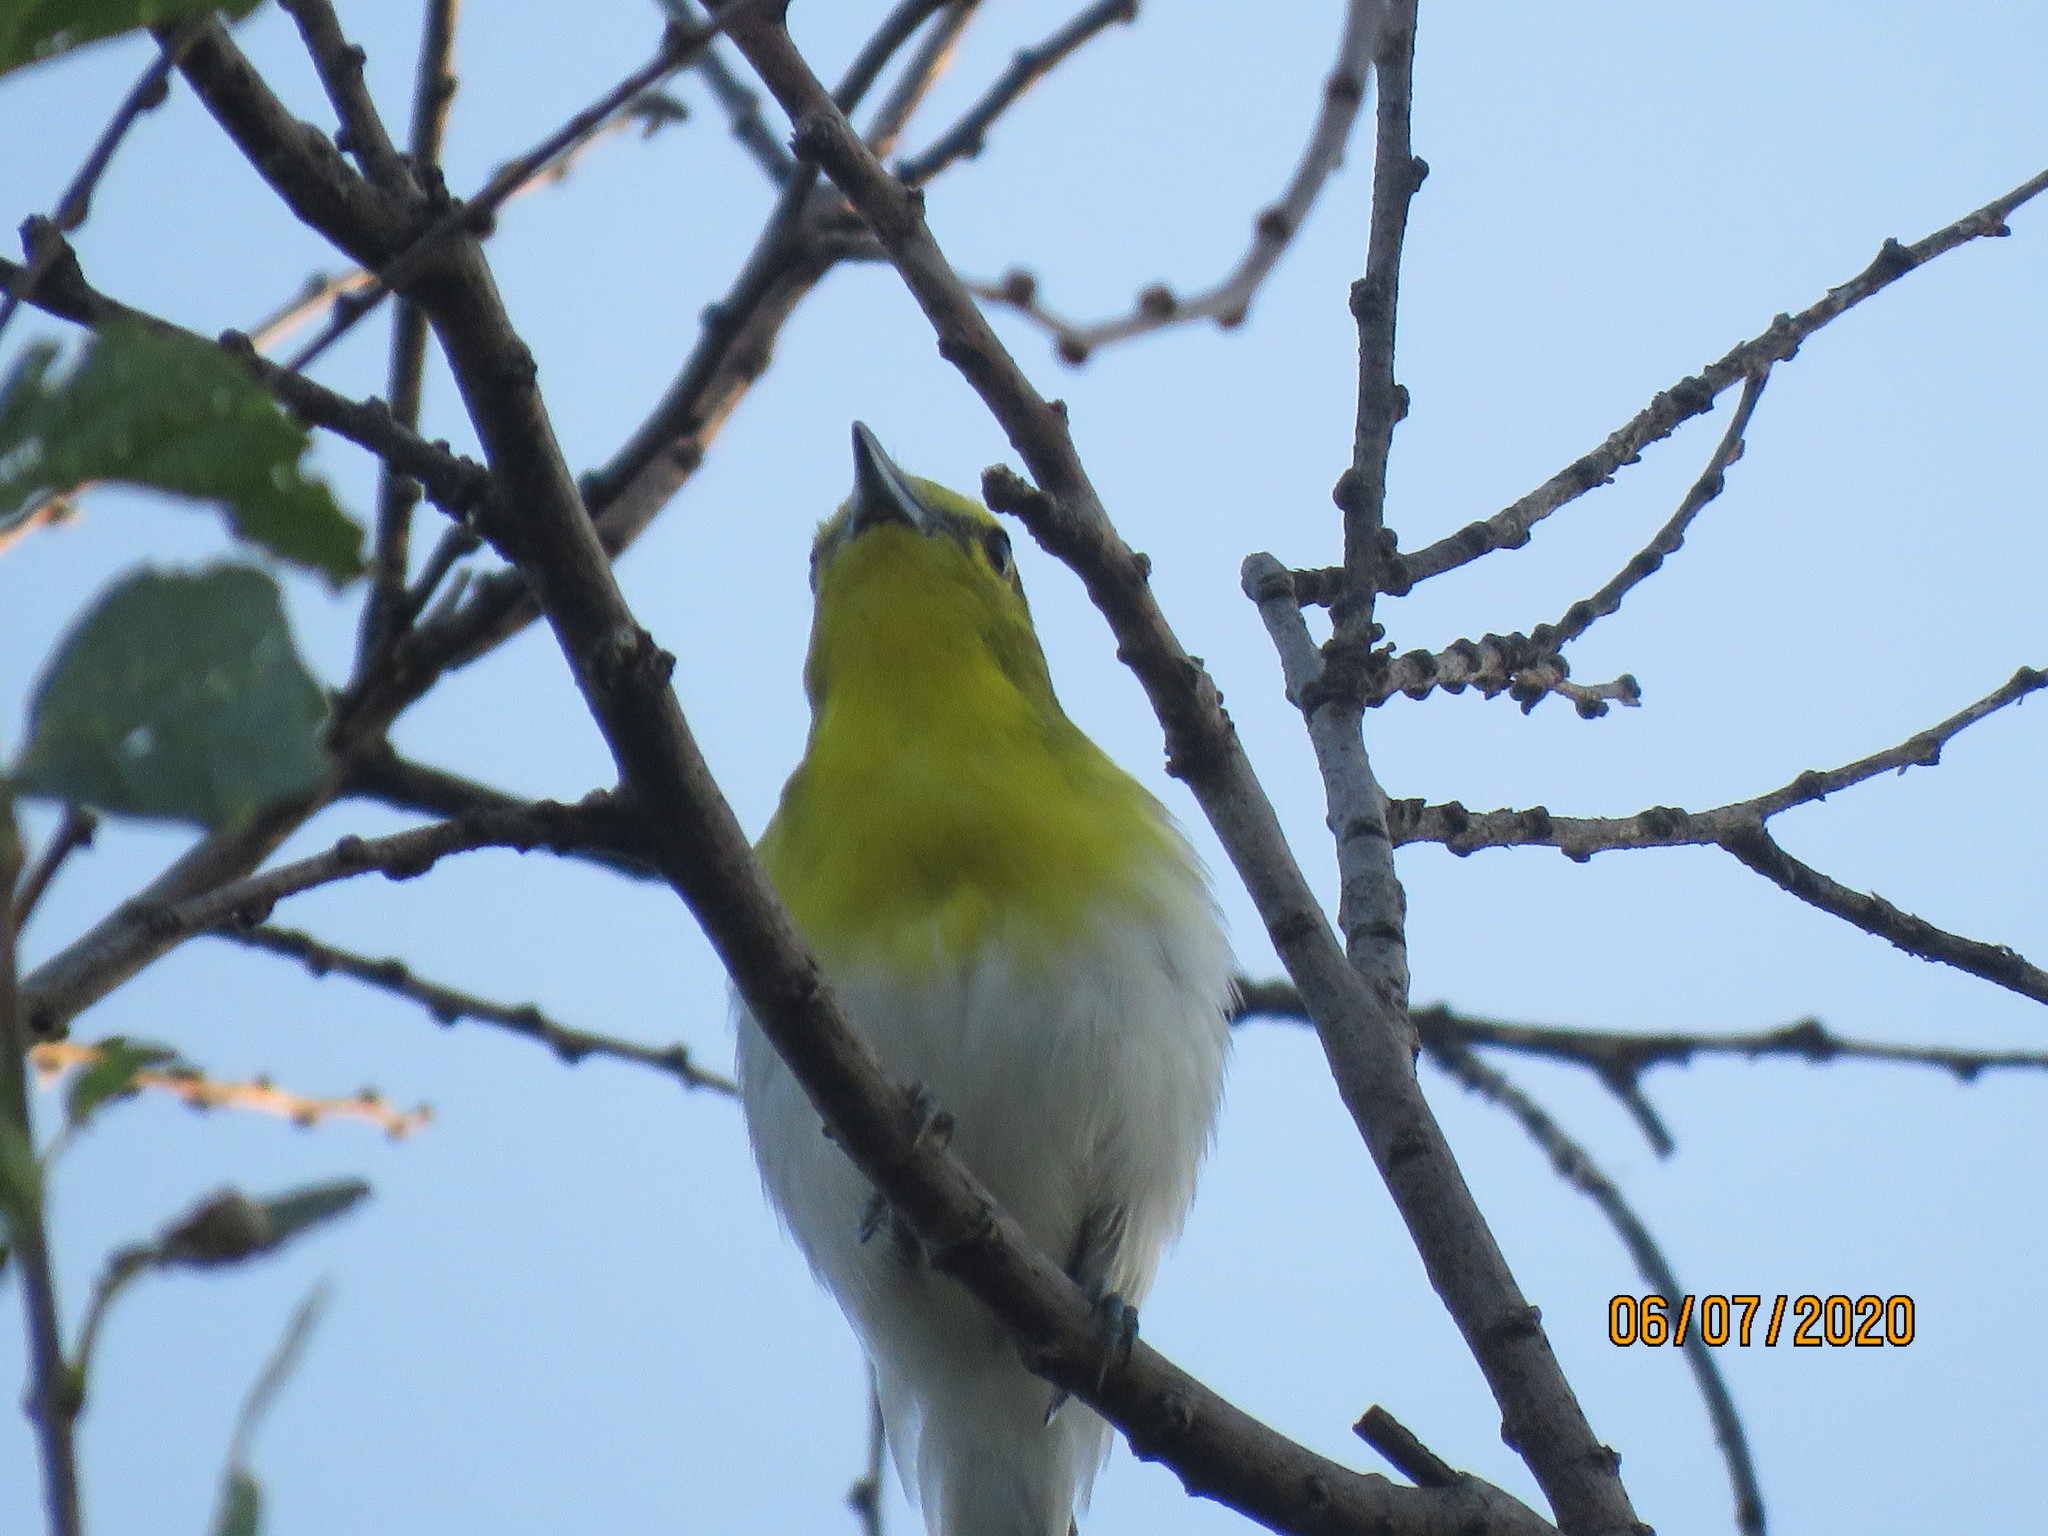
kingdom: Animalia
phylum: Chordata
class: Aves
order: Passeriformes
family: Vireonidae
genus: Vireo
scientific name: Vireo flavifrons
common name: Yellow-throated vireo
